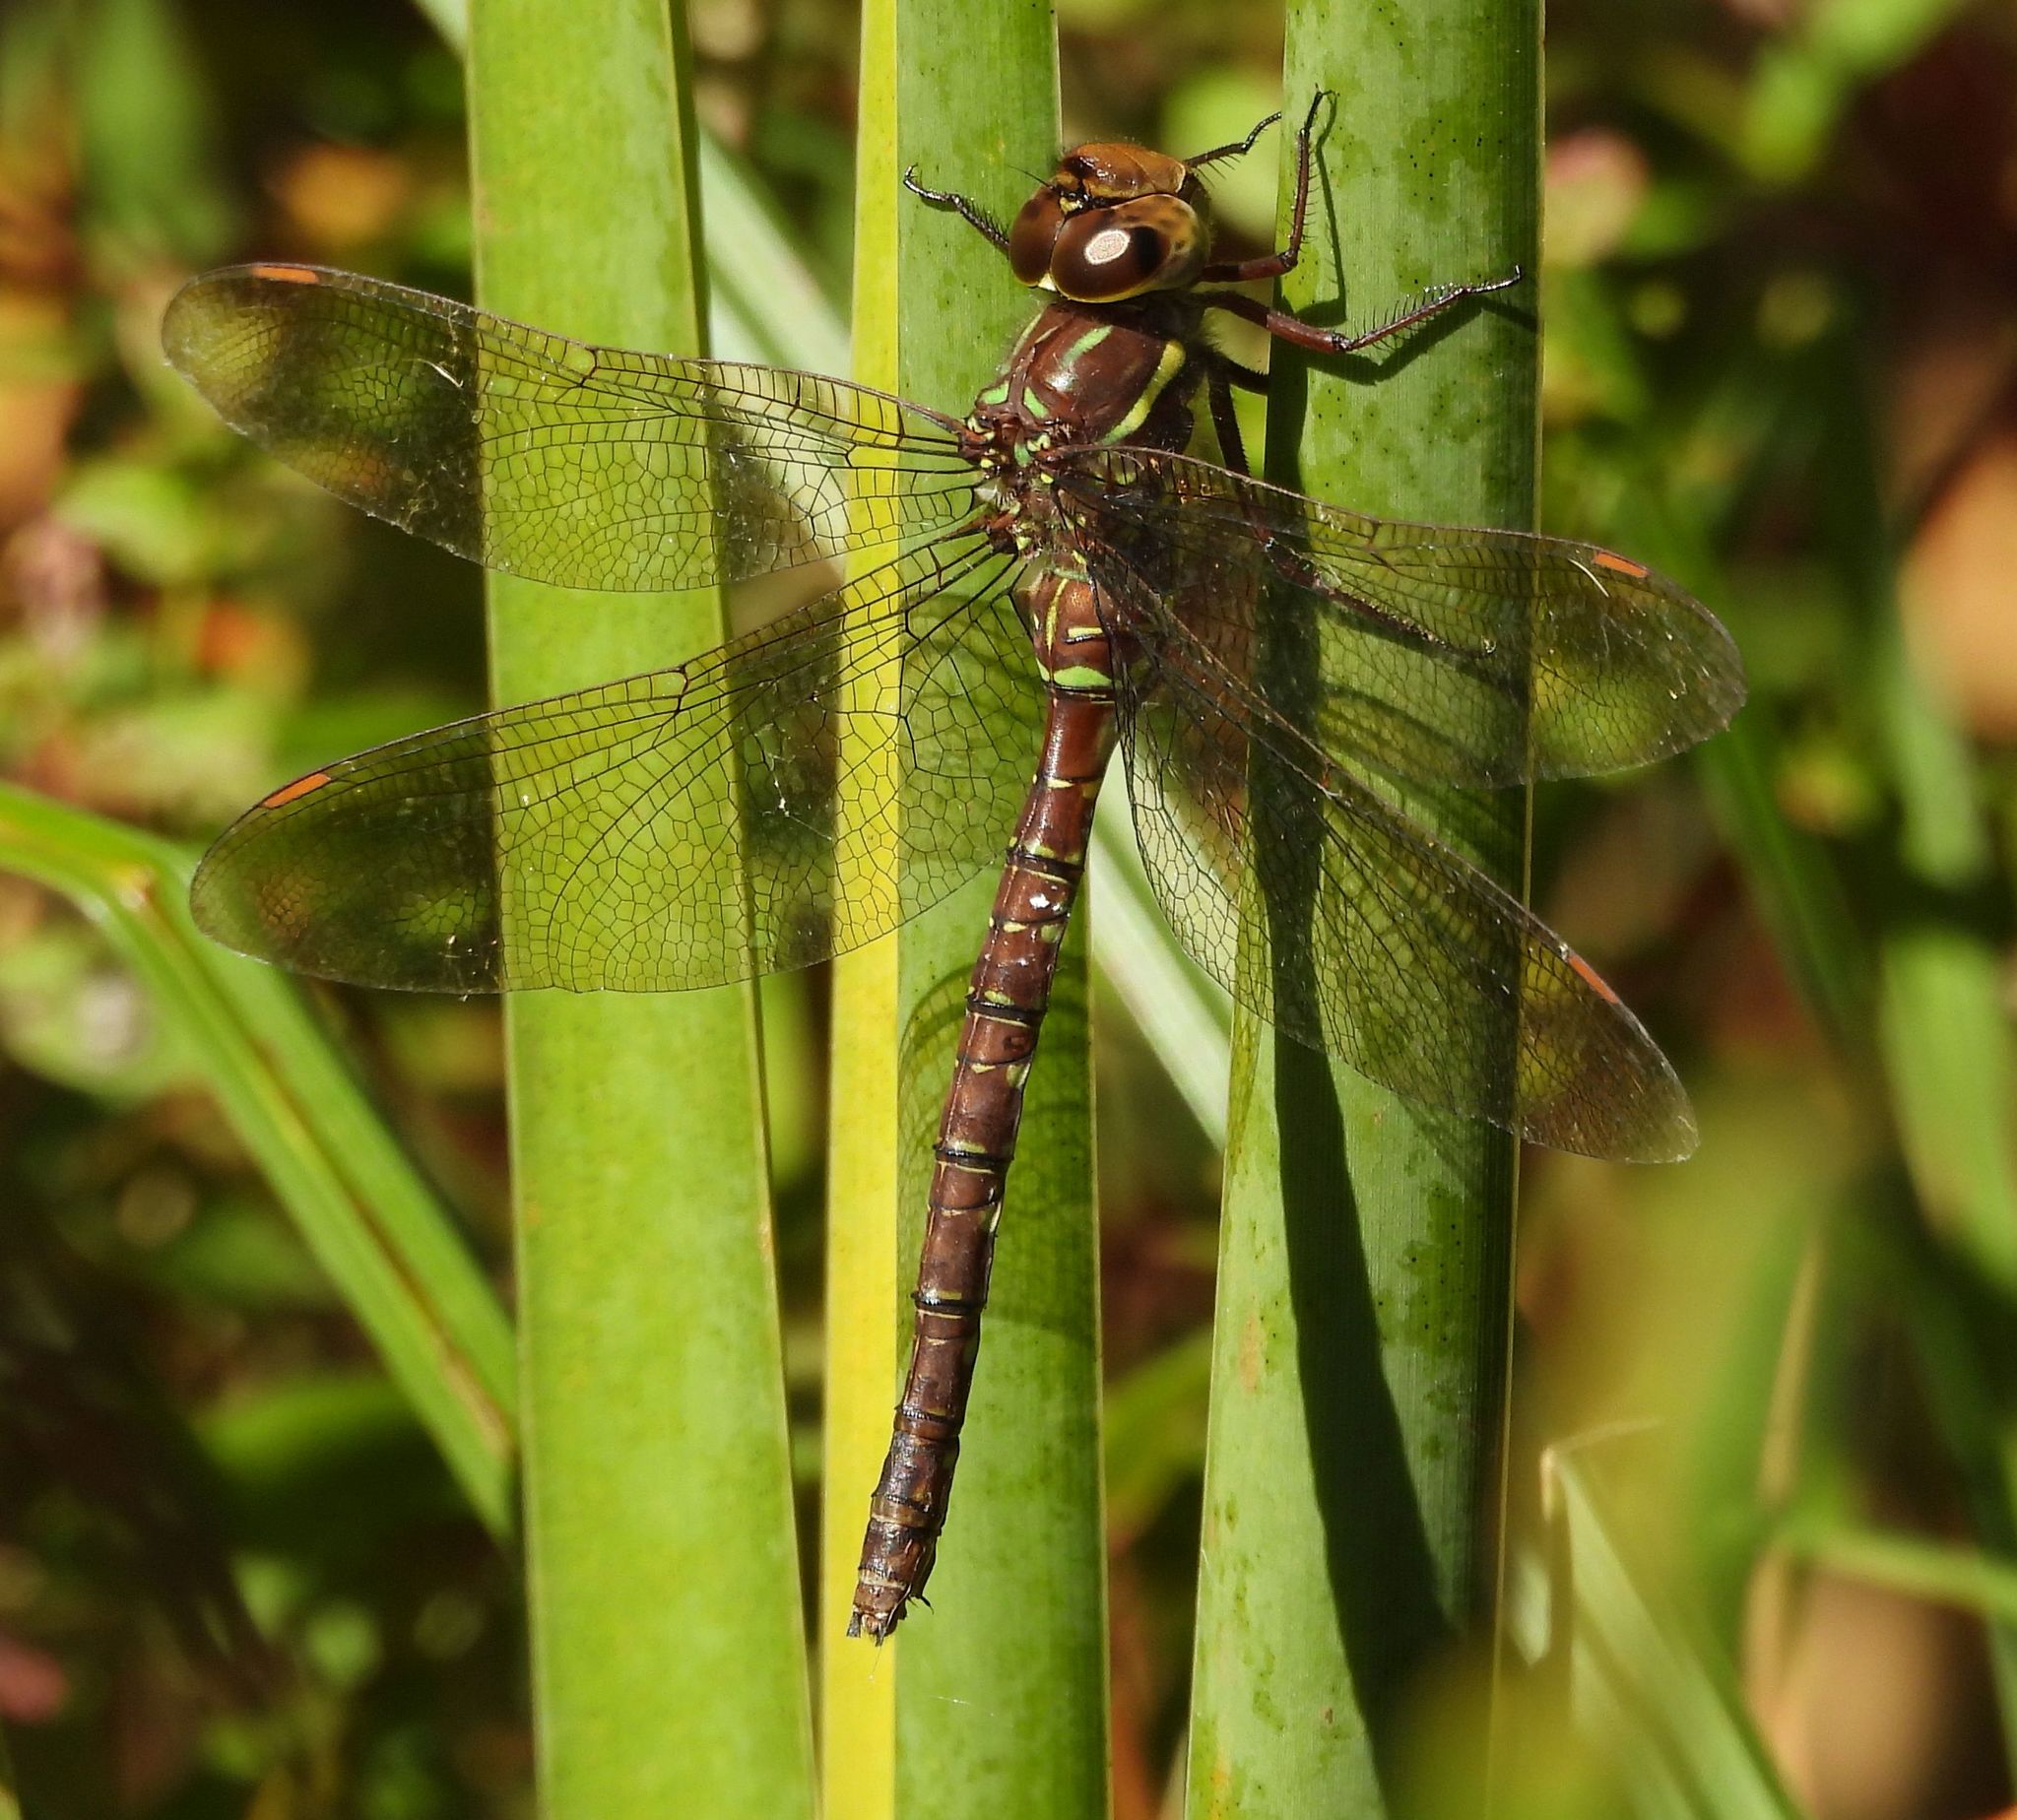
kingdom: Animalia
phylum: Arthropoda
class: Insecta
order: Odonata
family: Aeshnidae
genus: Aeshna
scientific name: Aeshna umbrosa
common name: Shadow darner
